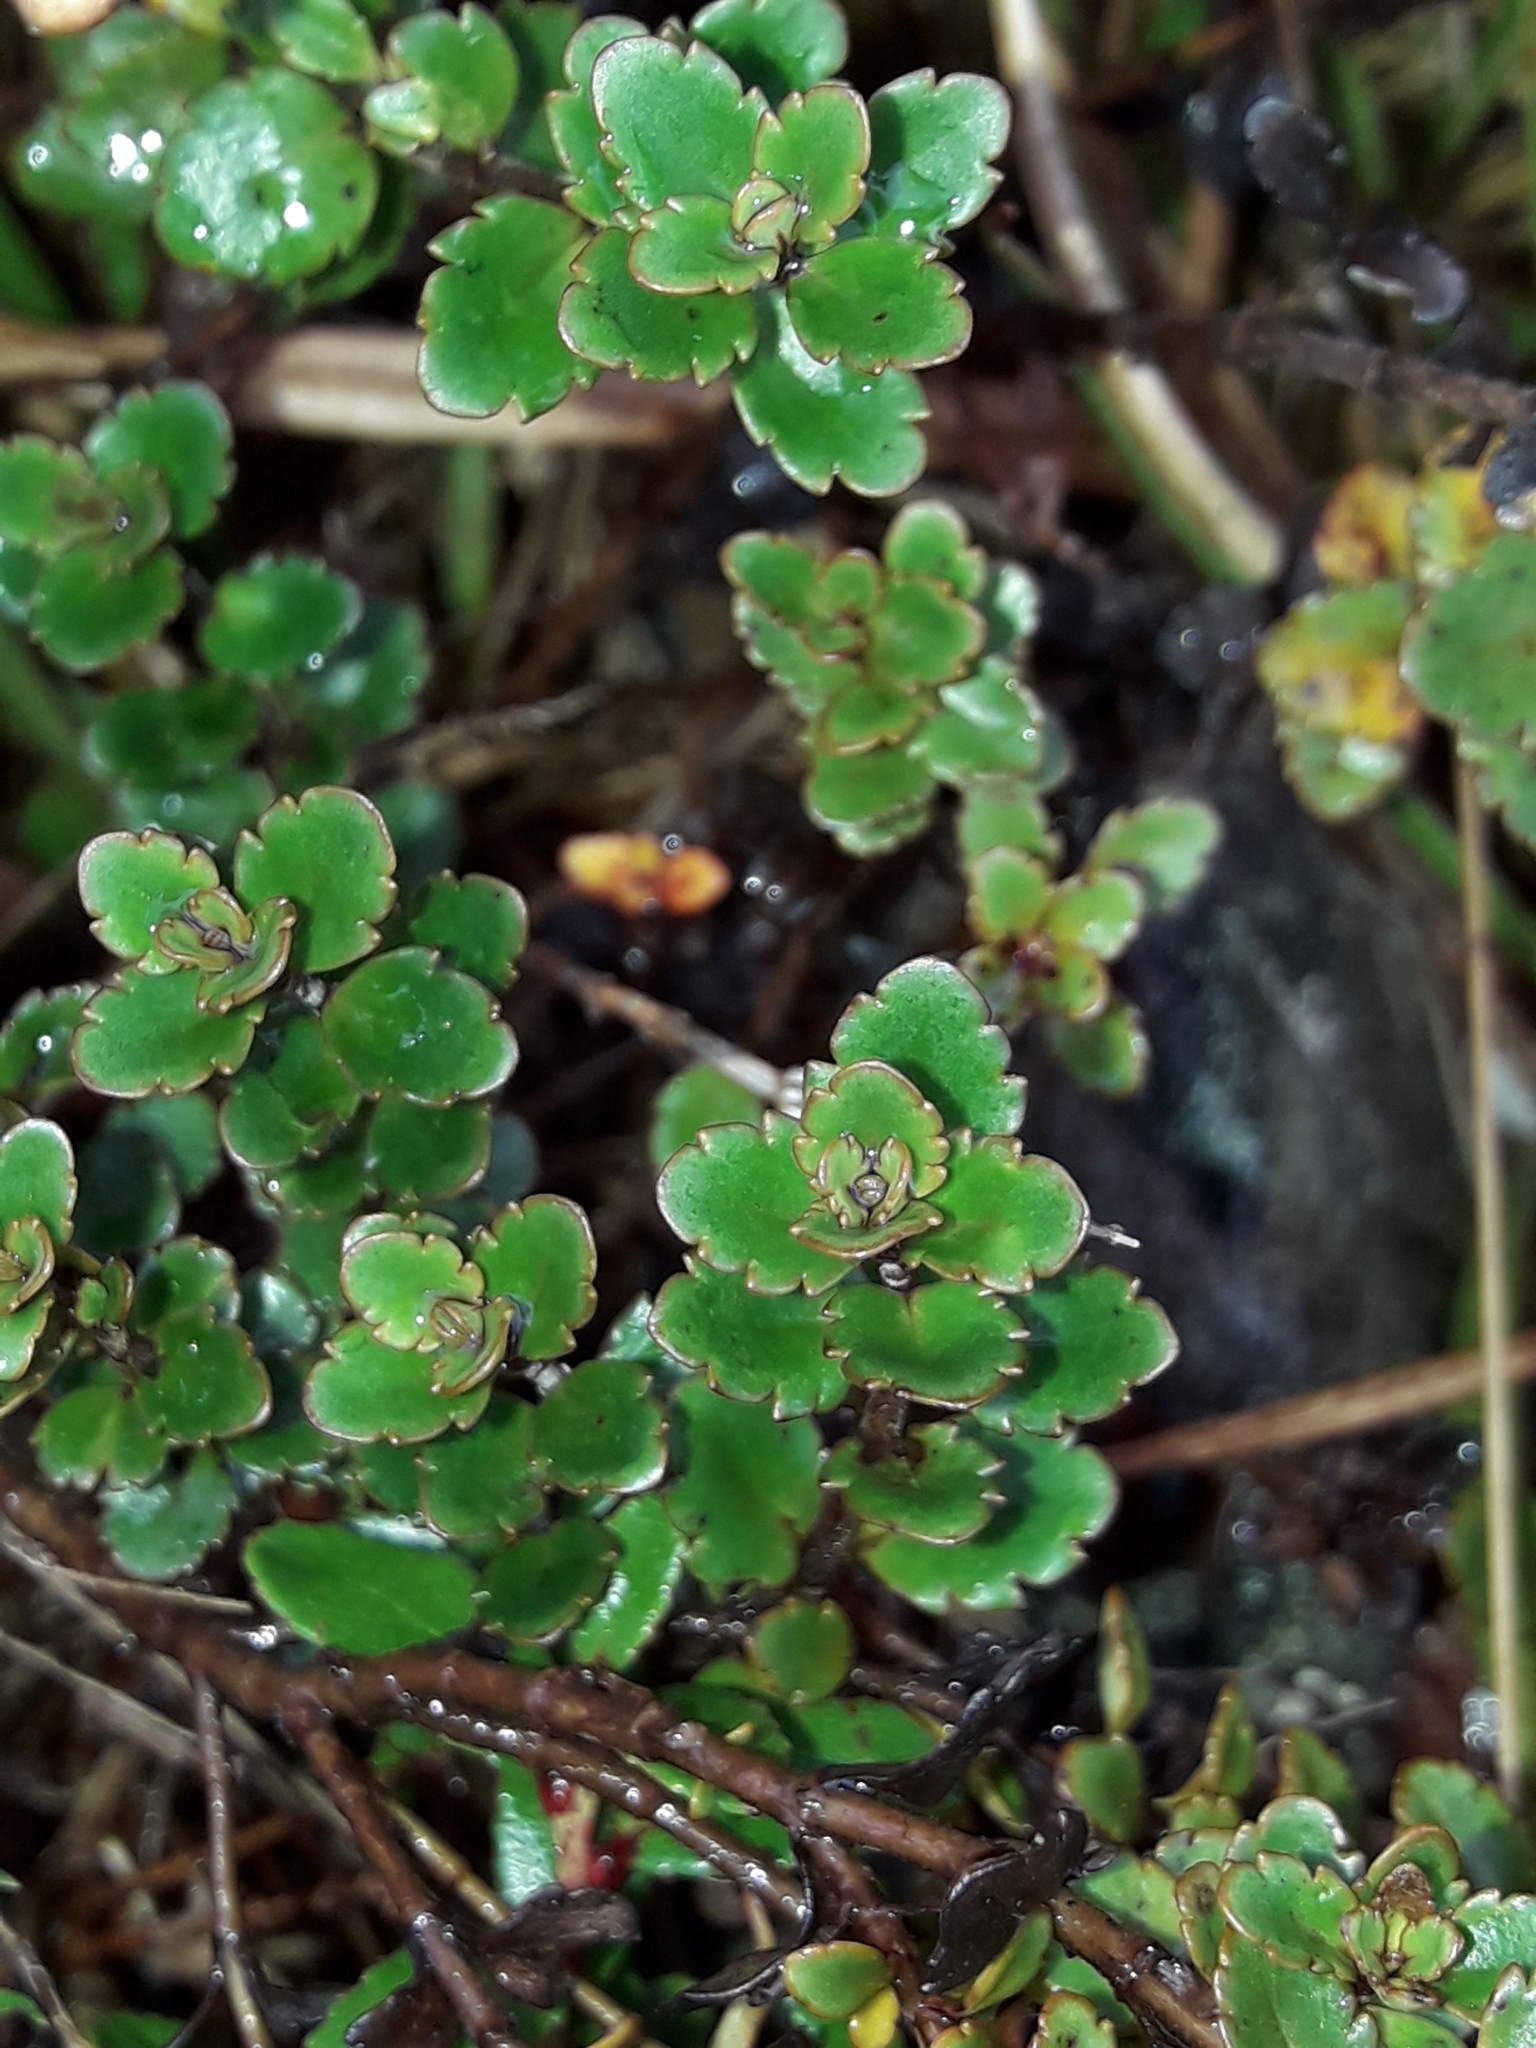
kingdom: Plantae
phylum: Tracheophyta
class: Magnoliopsida
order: Lamiales
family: Plantaginaceae
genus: Veronica
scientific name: Veronica lyallii
